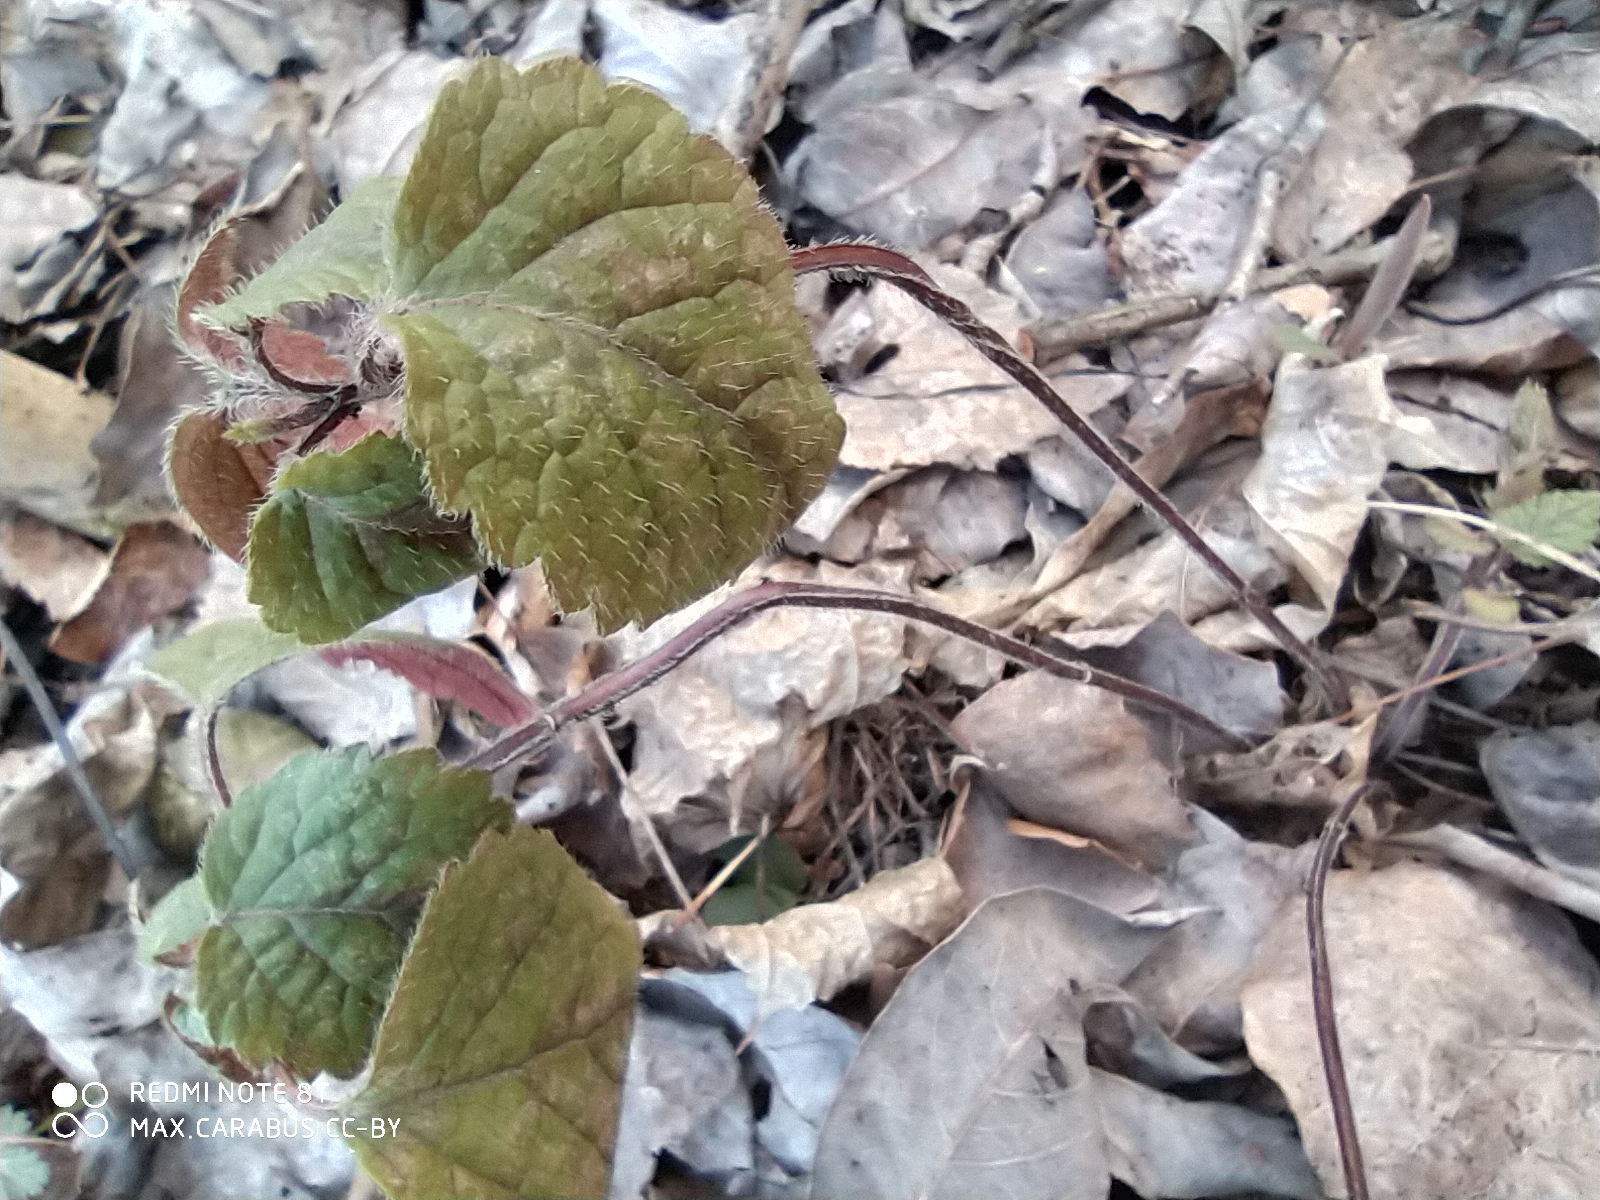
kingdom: Plantae
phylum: Tracheophyta
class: Magnoliopsida
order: Lamiales
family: Lamiaceae
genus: Lamium
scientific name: Lamium galeobdolon
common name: Yellow archangel
